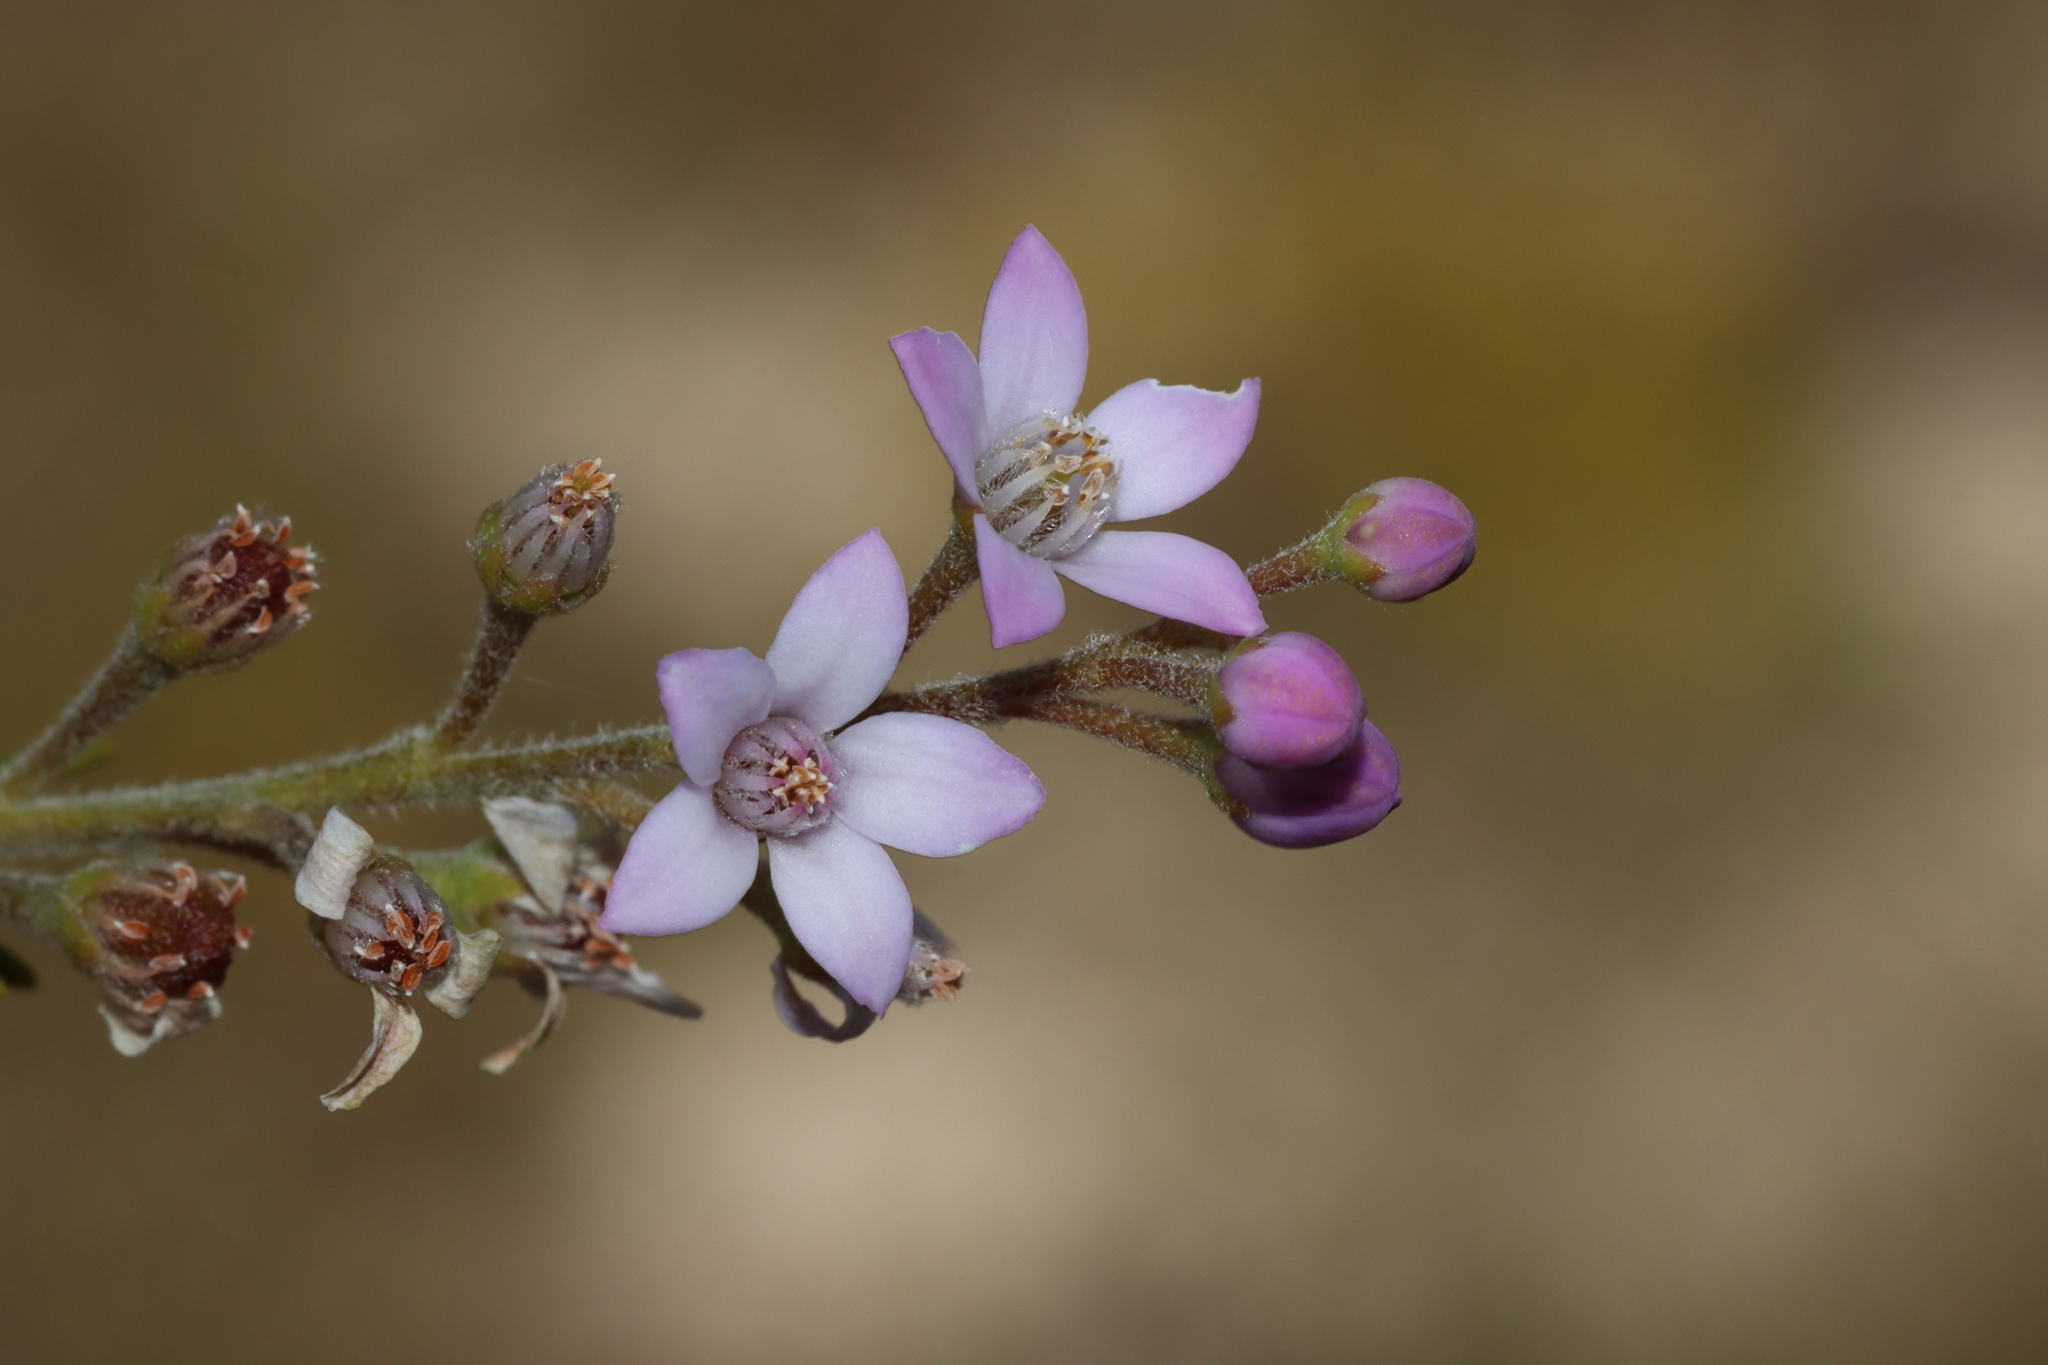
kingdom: Plantae
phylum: Tracheophyta
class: Magnoliopsida
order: Sapindales
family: Rutaceae
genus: Philotheca
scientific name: Philotheca spicata
